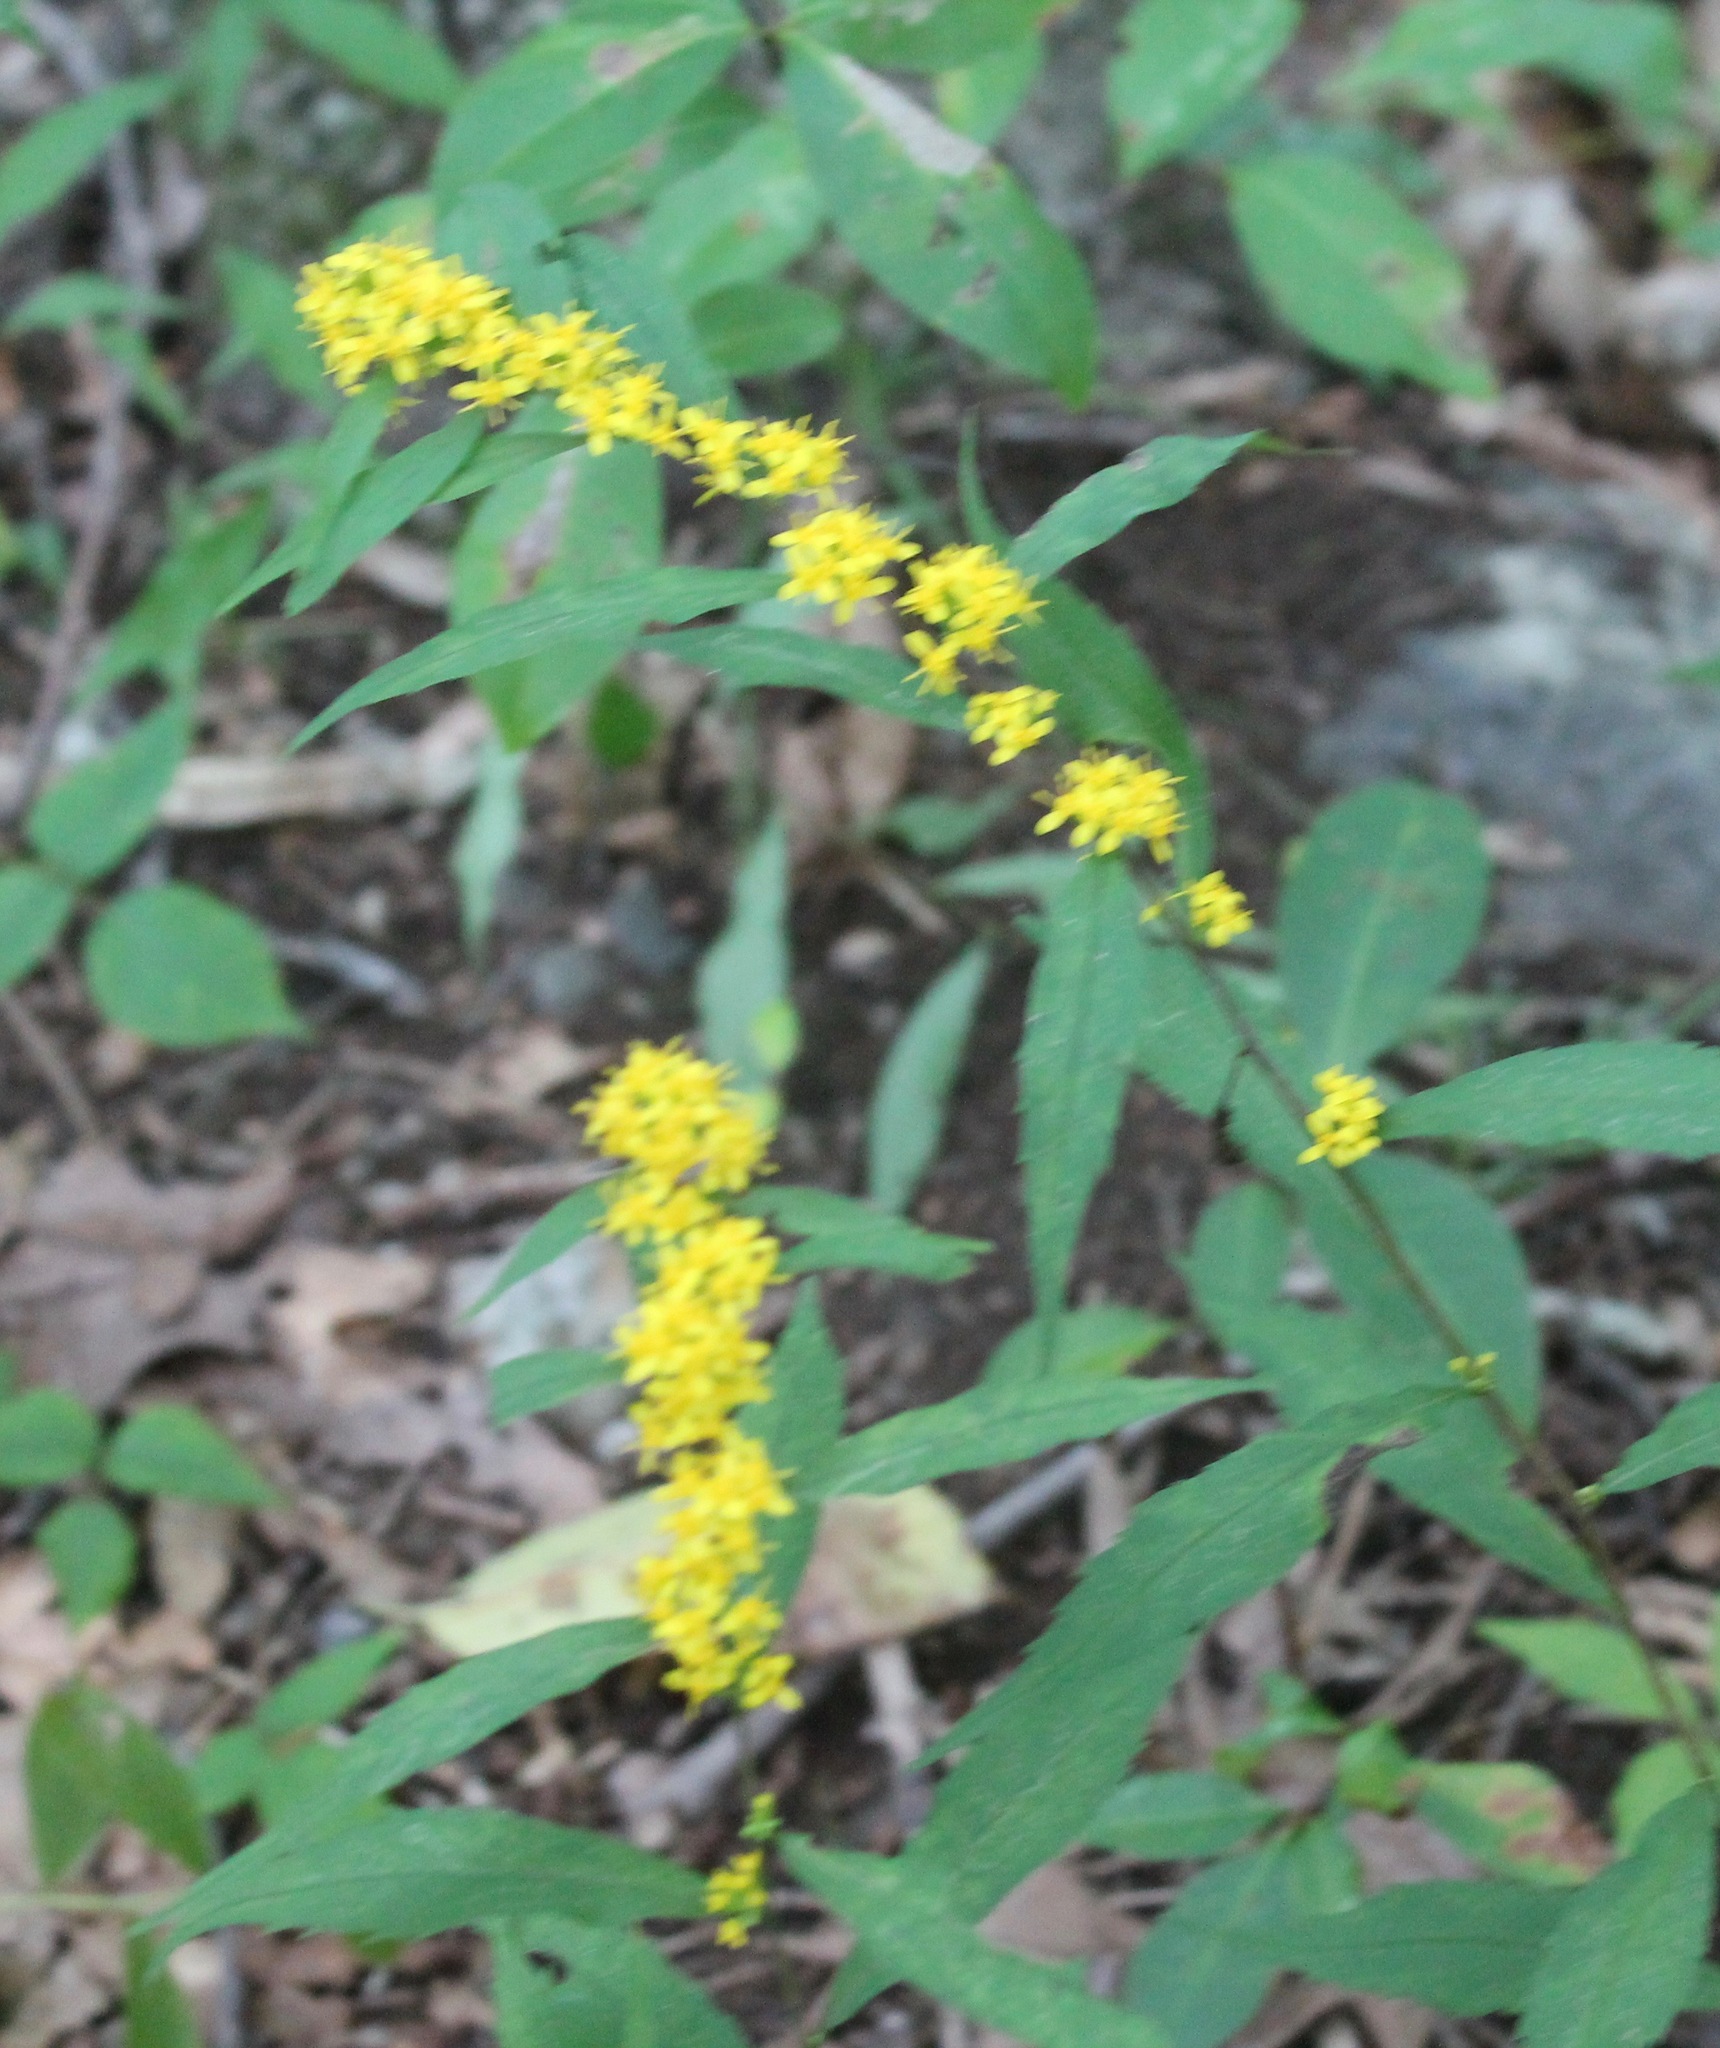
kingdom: Plantae
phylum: Tracheophyta
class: Magnoliopsida
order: Asterales
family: Asteraceae
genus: Solidago
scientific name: Solidago caesia
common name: Woodland goldenrod
